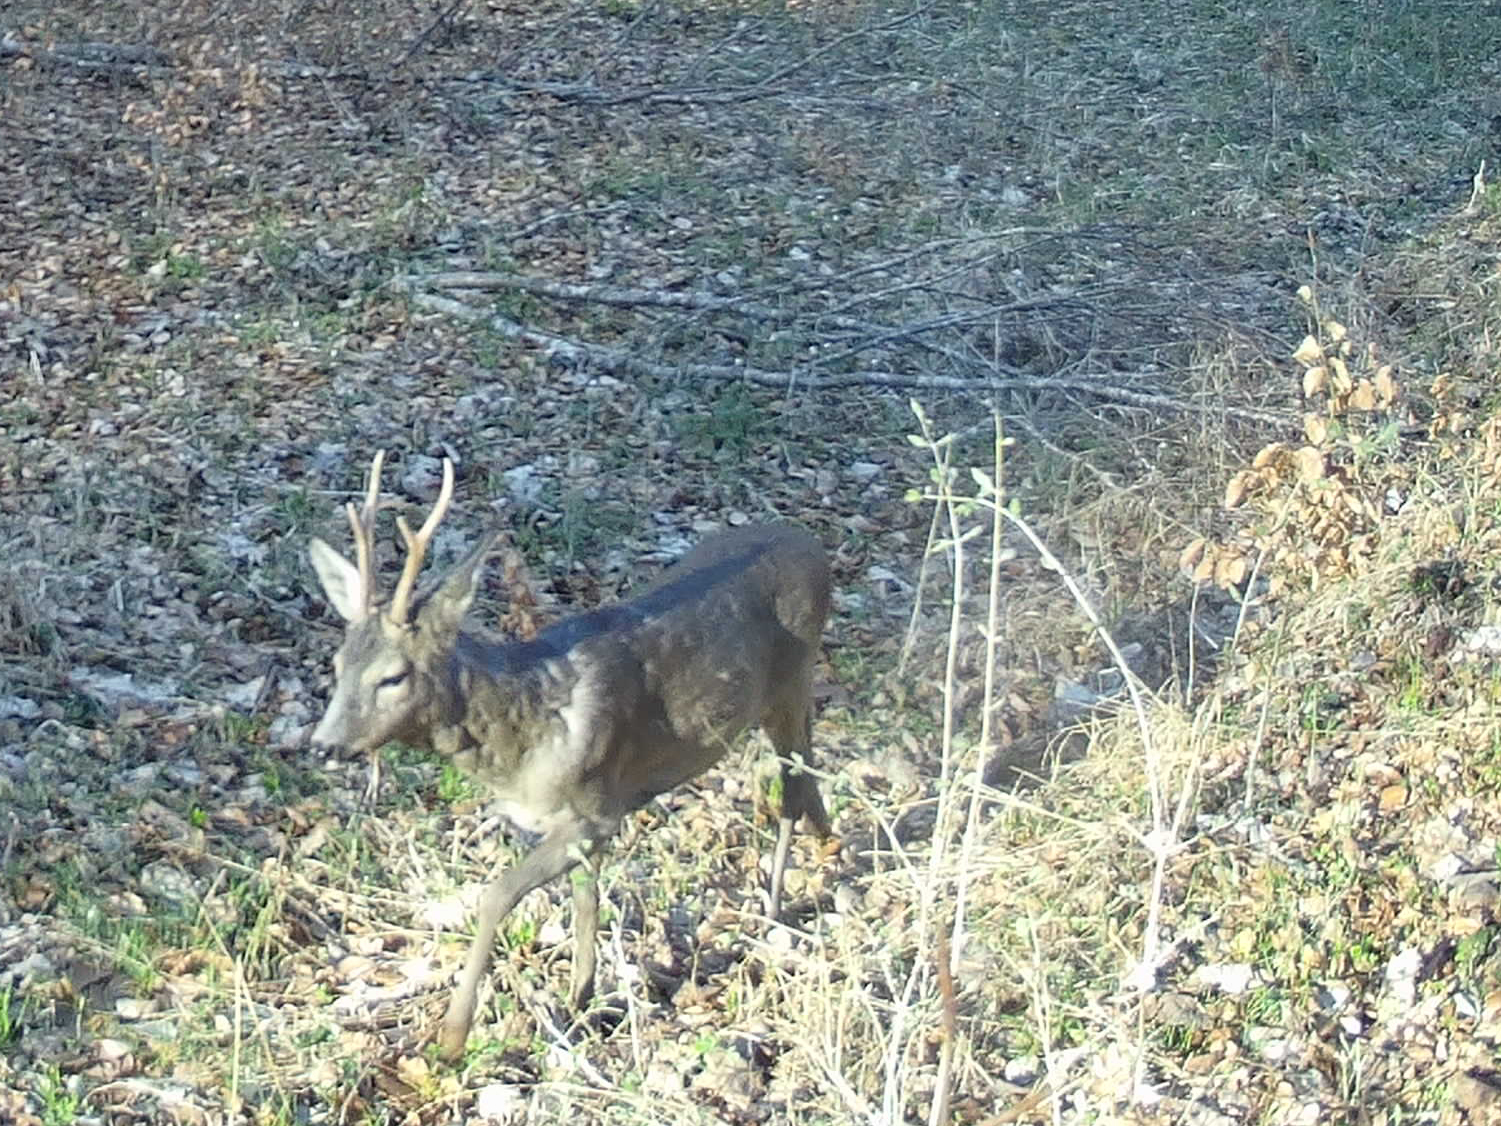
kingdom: Animalia
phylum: Chordata
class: Mammalia
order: Artiodactyla
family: Cervidae
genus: Capreolus
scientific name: Capreolus capreolus
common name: Western roe deer
